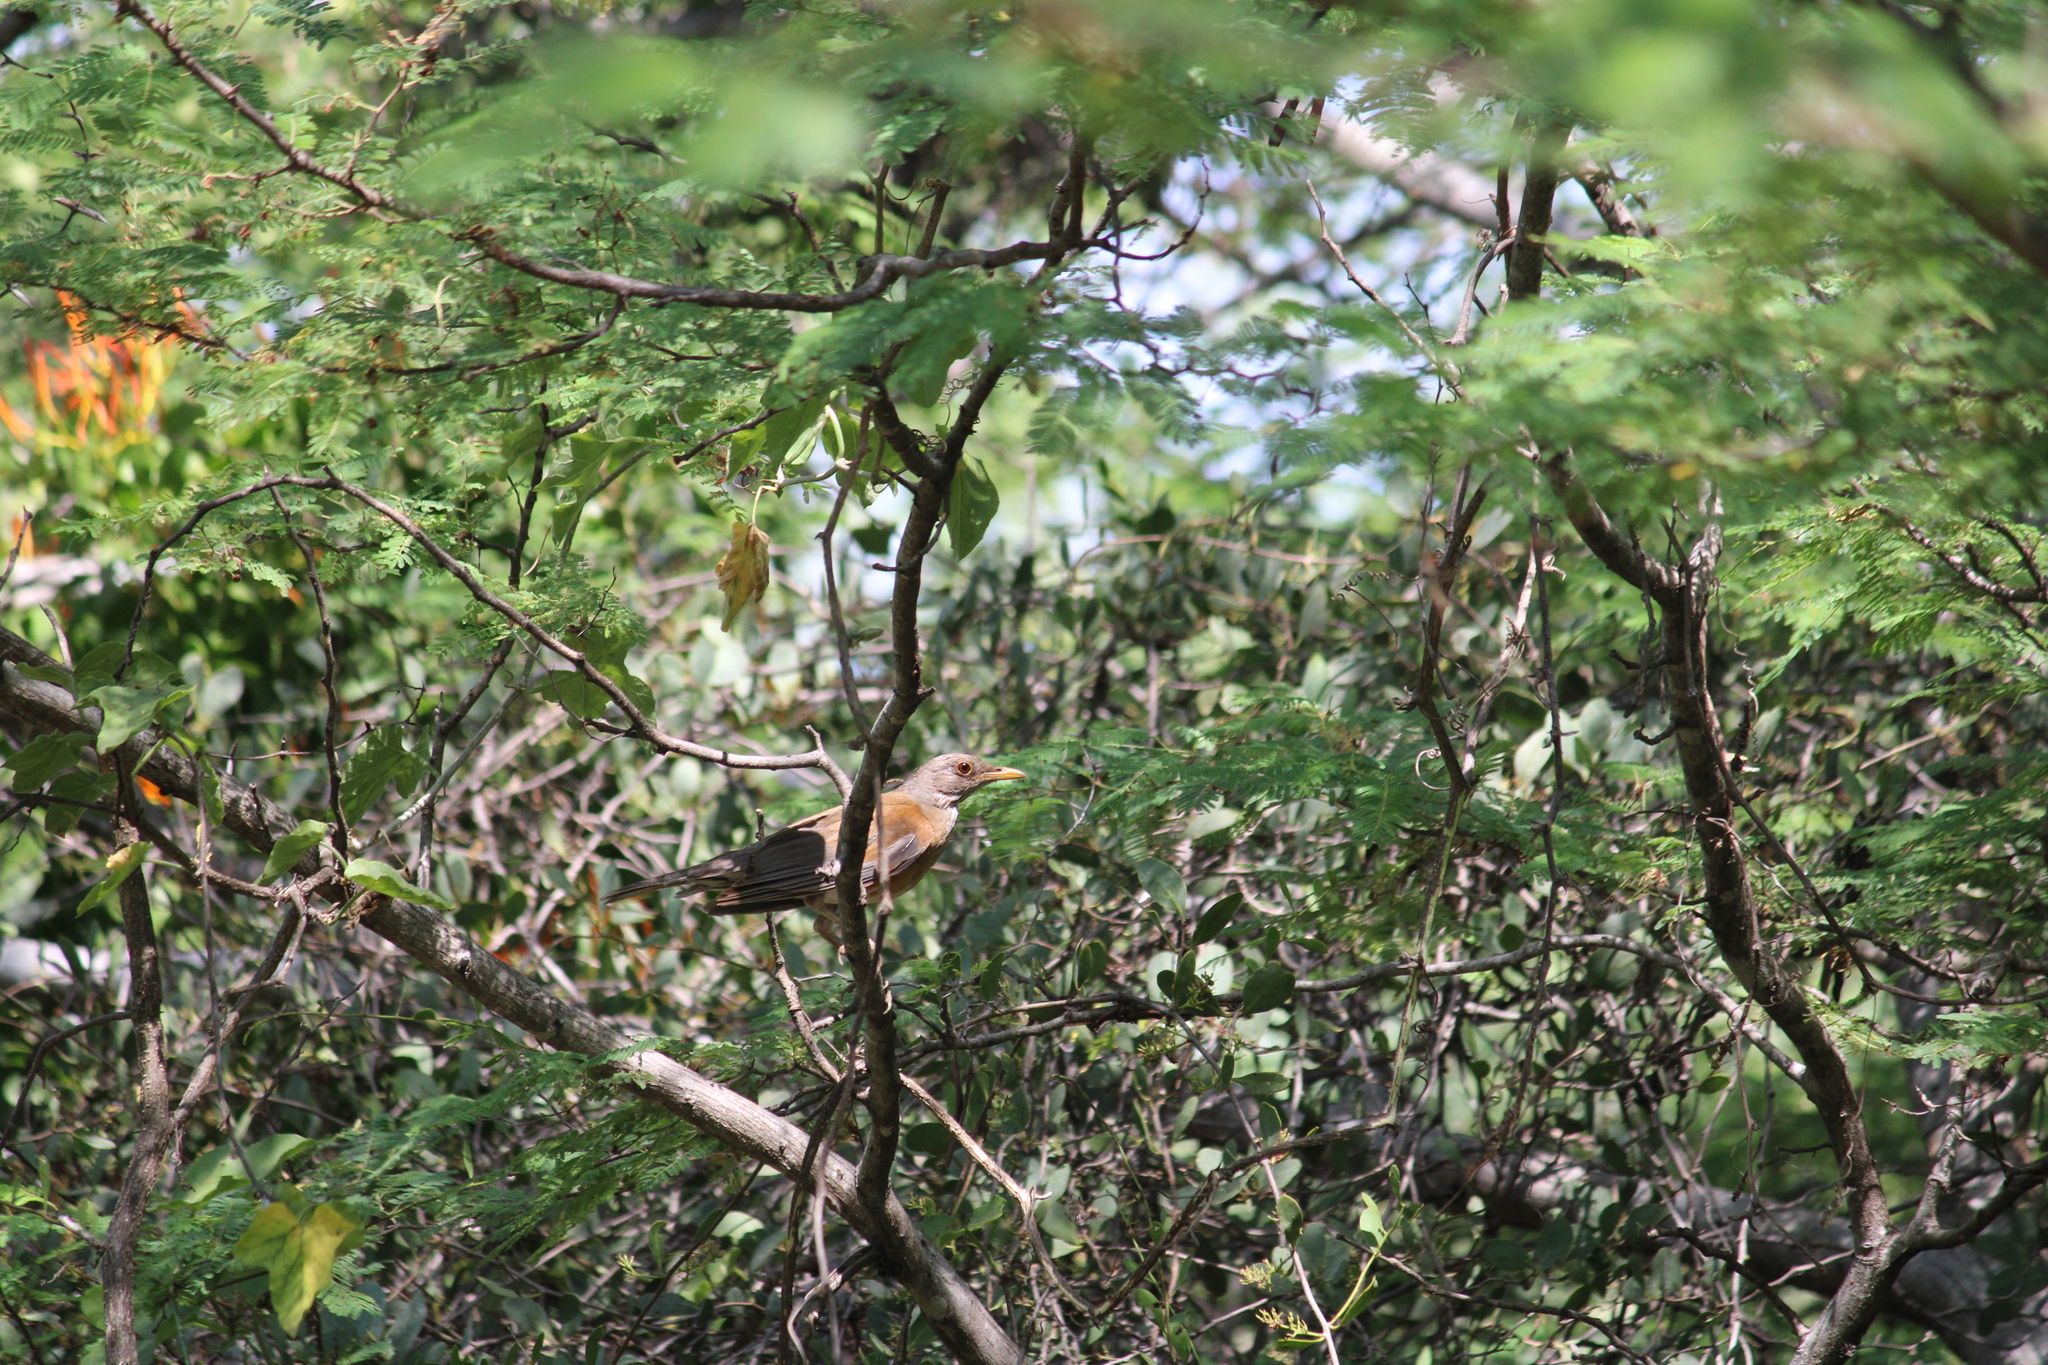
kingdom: Animalia
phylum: Chordata
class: Aves
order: Passeriformes
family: Turdidae
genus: Turdus
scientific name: Turdus rufopalliatus
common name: Rufous-backed robin
